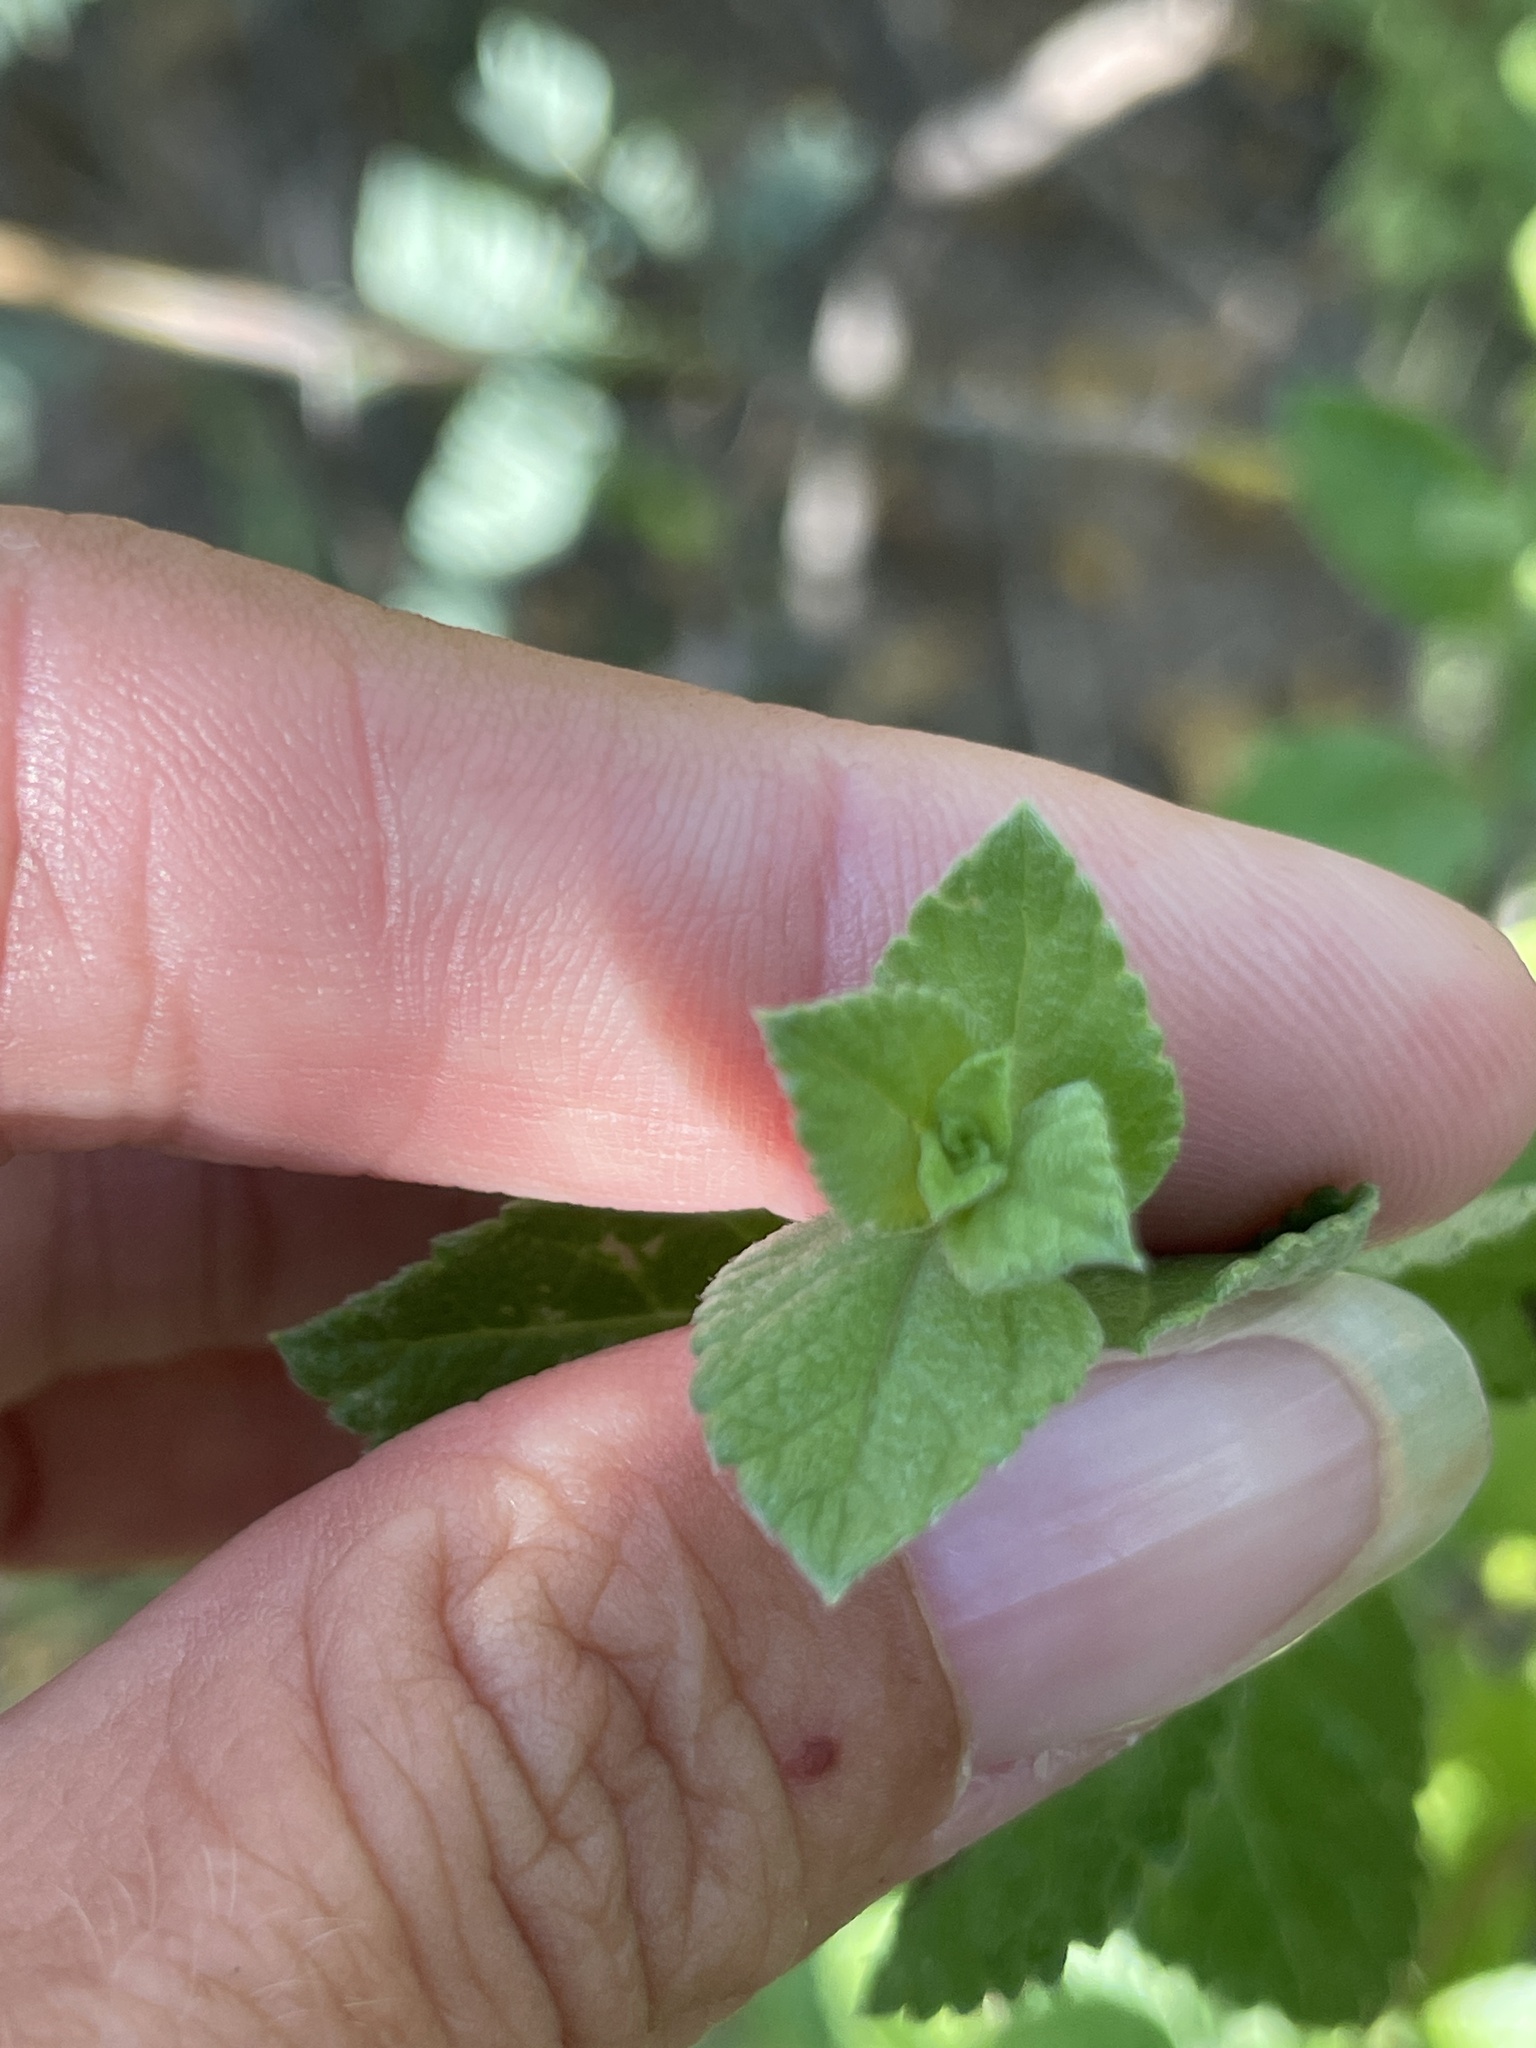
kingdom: Plantae
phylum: Tracheophyta
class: Magnoliopsida
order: Lamiales
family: Verbenaceae
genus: Lippia
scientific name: Lippia alba
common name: Bushy matgrass
